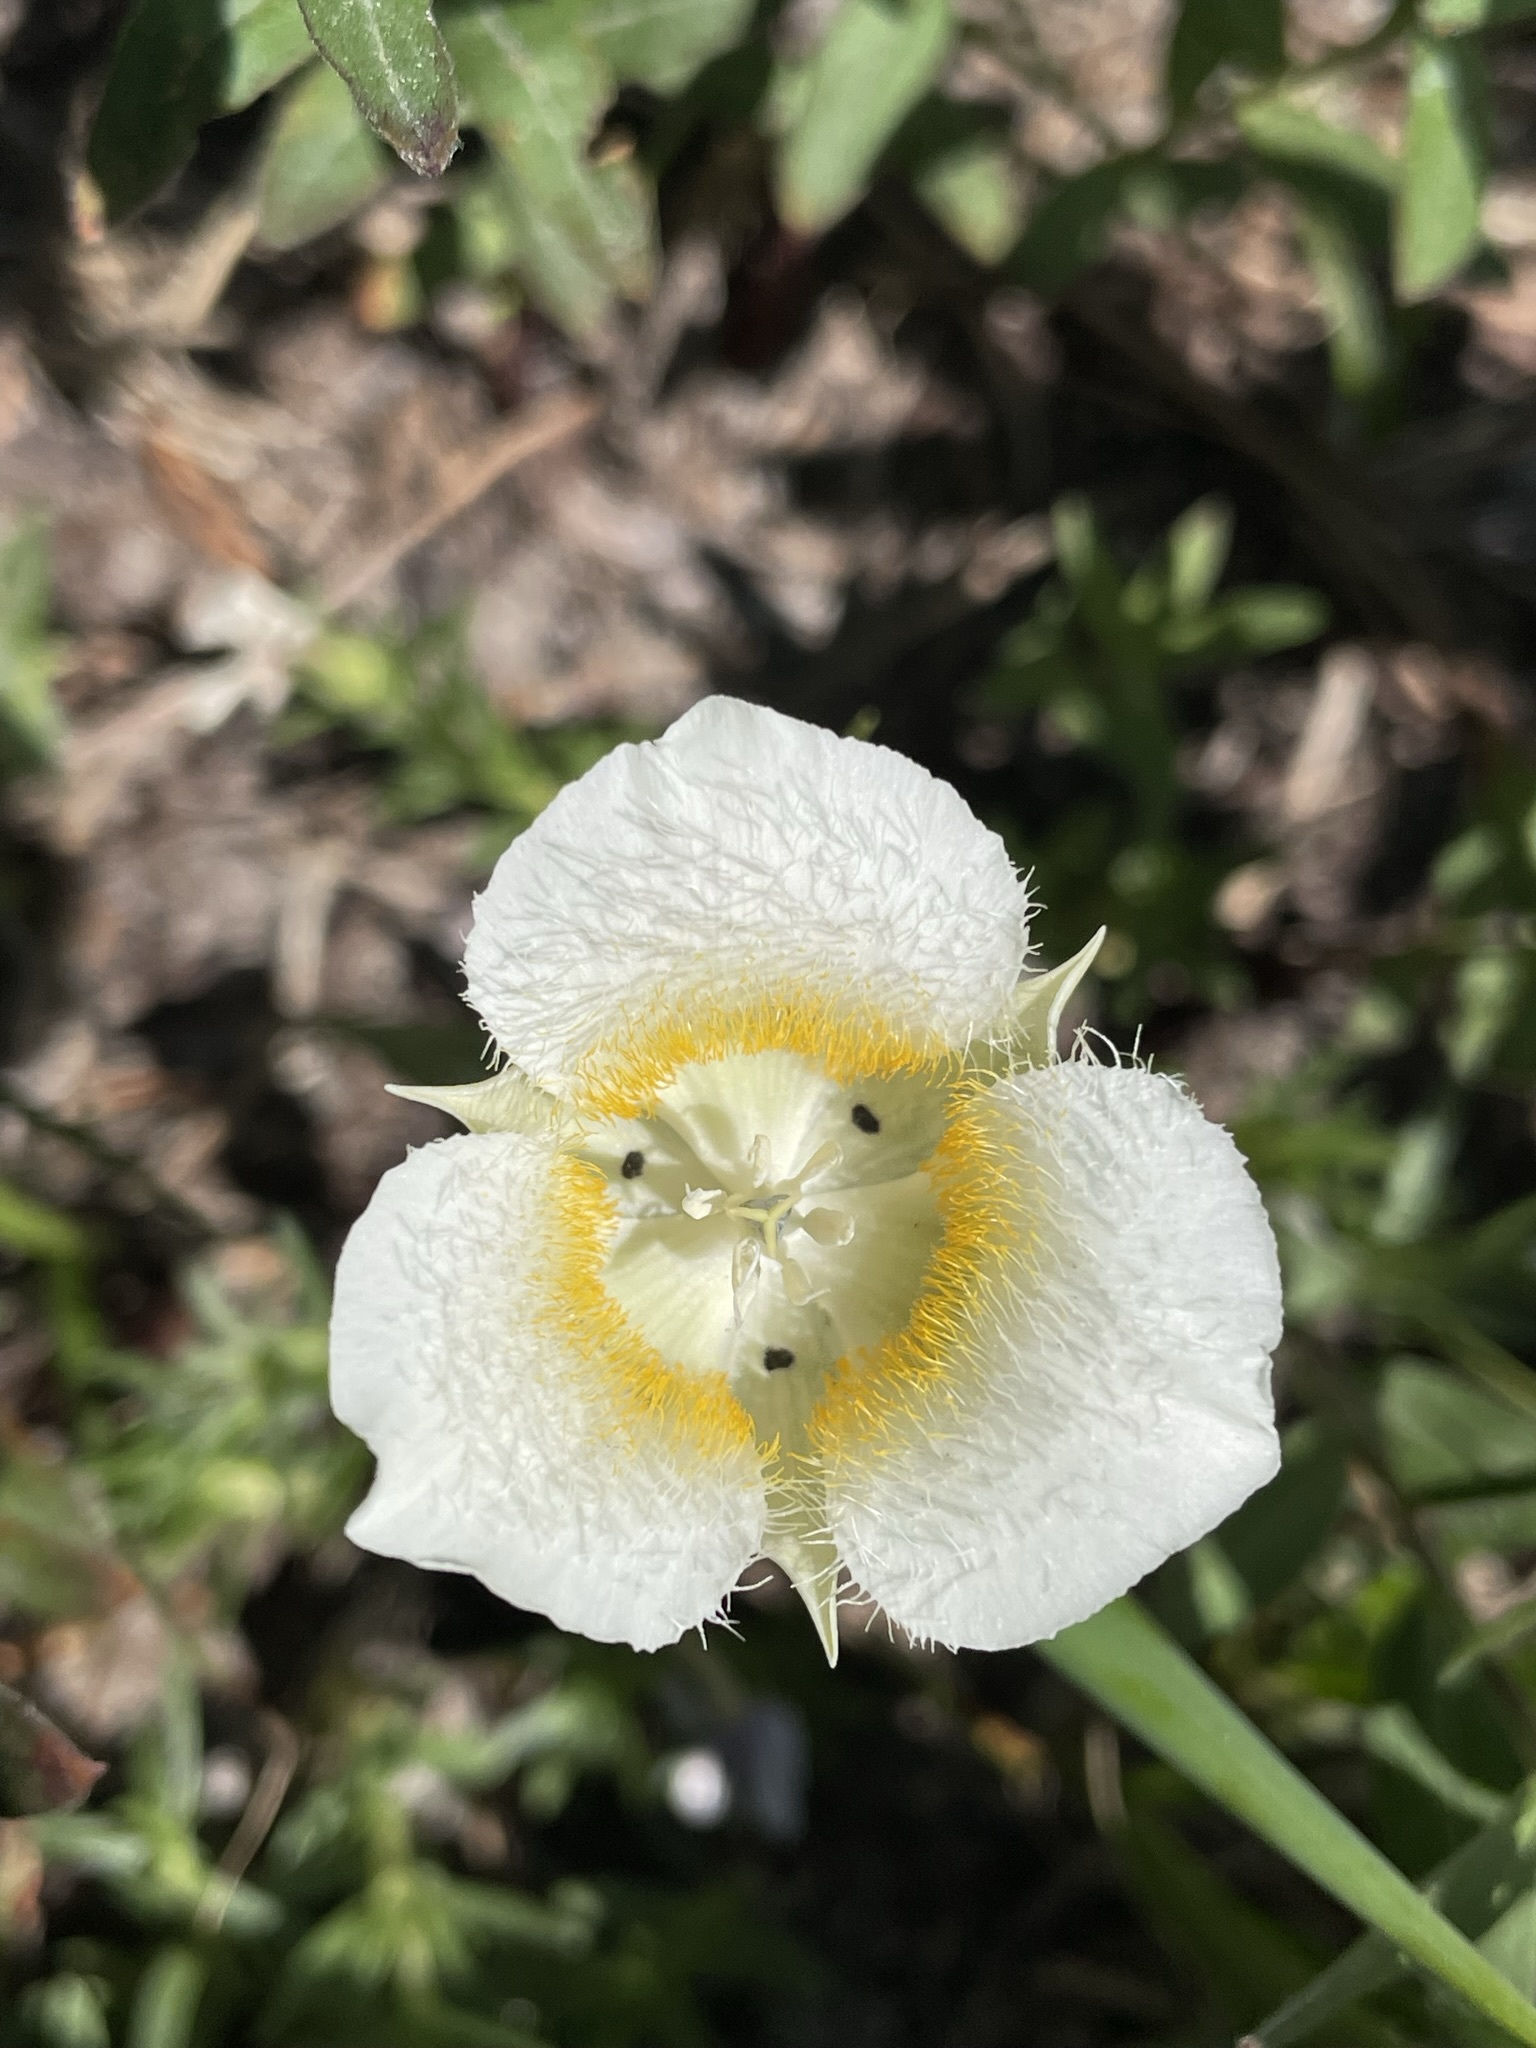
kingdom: Plantae
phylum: Tracheophyta
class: Liliopsida
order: Liliales
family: Liliaceae
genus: Calochortus
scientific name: Calochortus subalpinus
